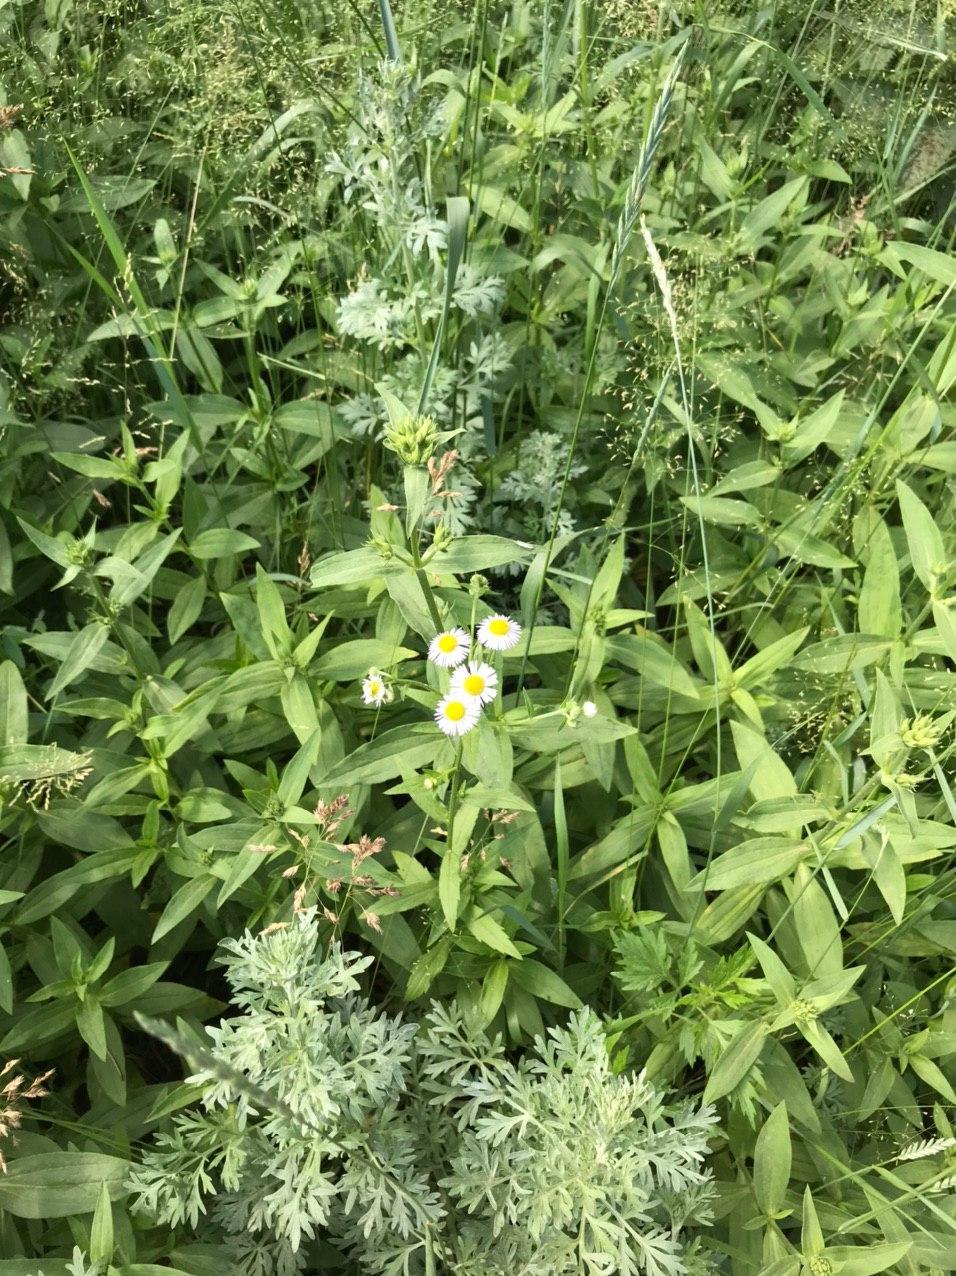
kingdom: Plantae
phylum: Tracheophyta
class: Magnoliopsida
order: Asterales
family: Asteraceae
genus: Erigeron
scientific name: Erigeron annuus
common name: Tall fleabane
